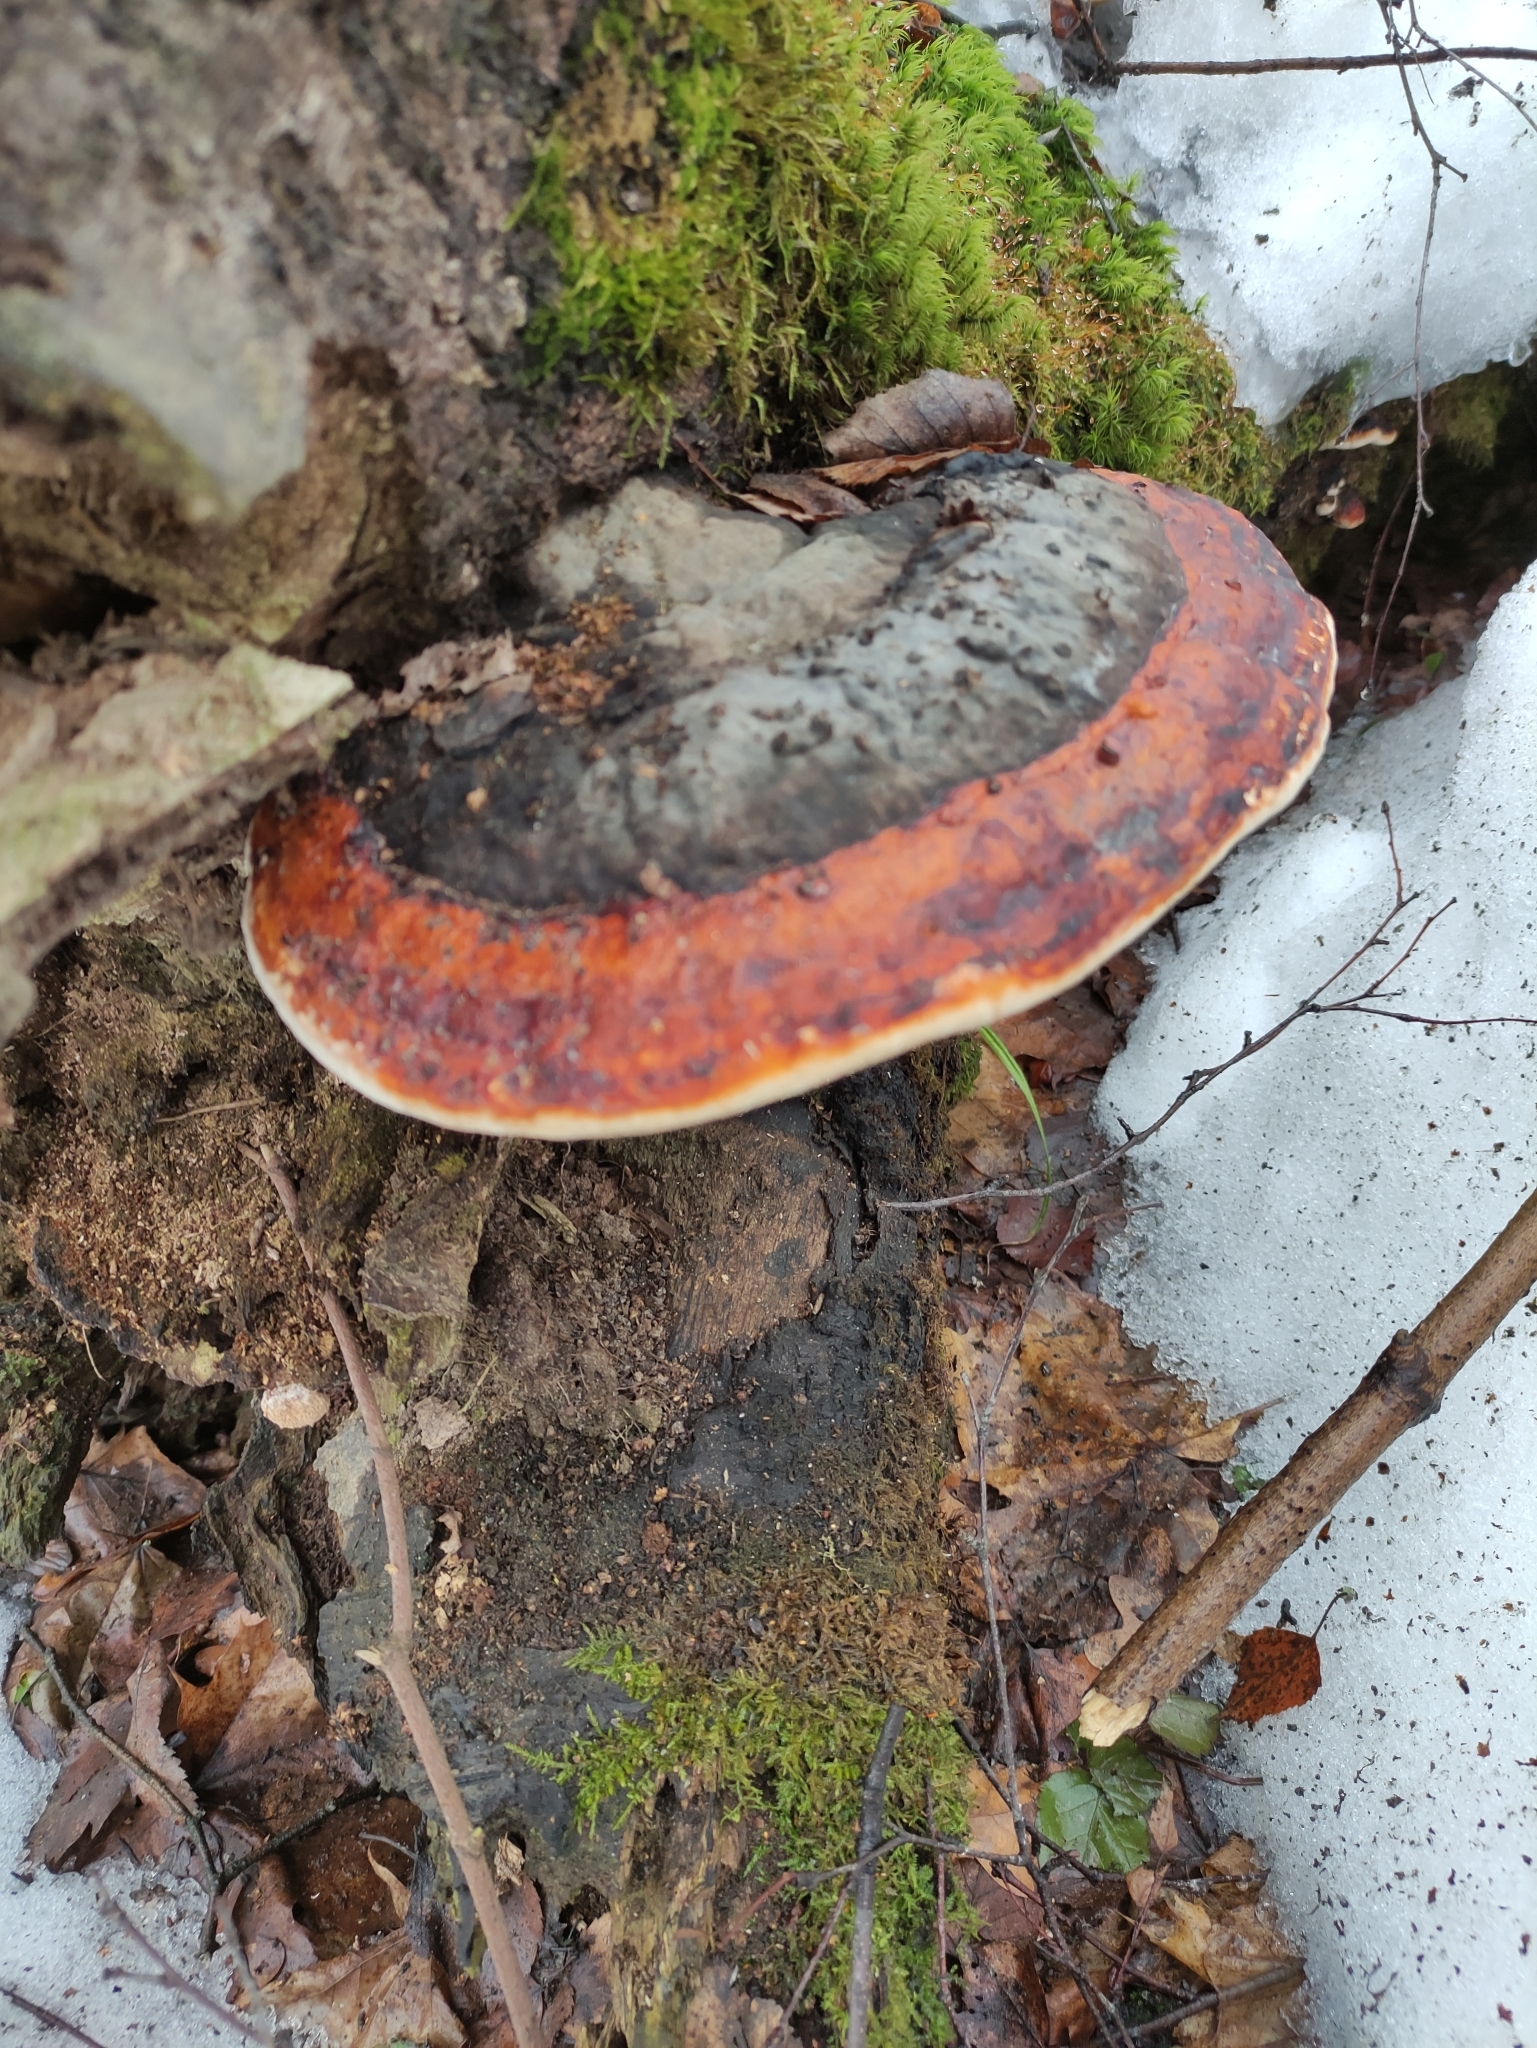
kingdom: Fungi
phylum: Basidiomycota
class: Agaricomycetes
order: Polyporales
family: Fomitopsidaceae
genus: Fomitopsis
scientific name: Fomitopsis pinicola
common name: Red-belted bracket
